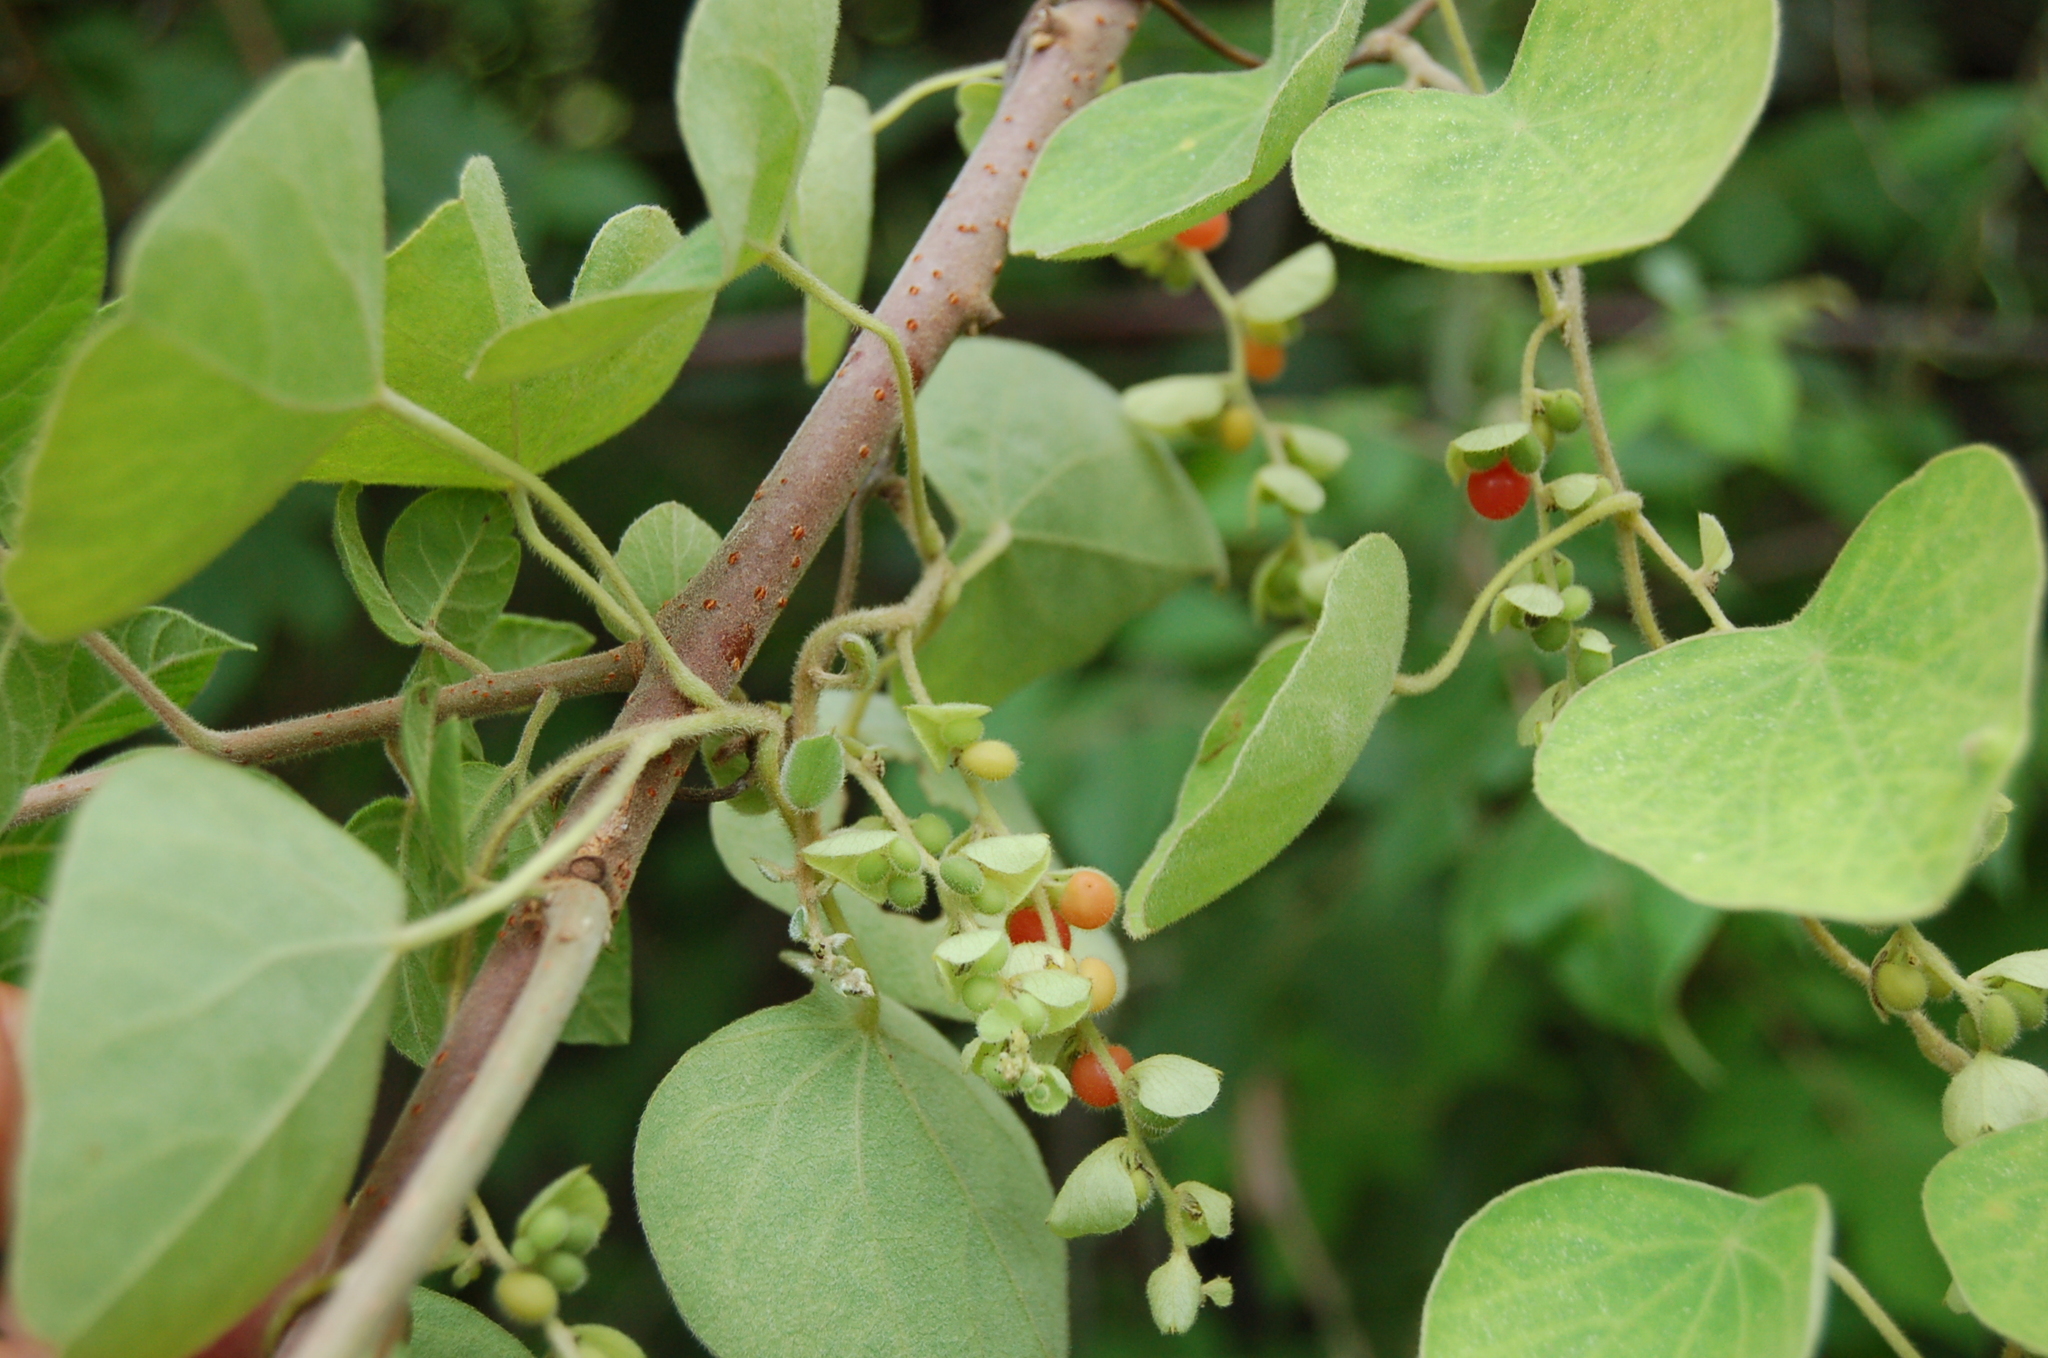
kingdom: Plantae
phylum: Tracheophyta
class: Magnoliopsida
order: Ranunculales
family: Menispermaceae
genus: Cissampelos
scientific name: Cissampelos pareira
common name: Velvetleaf
